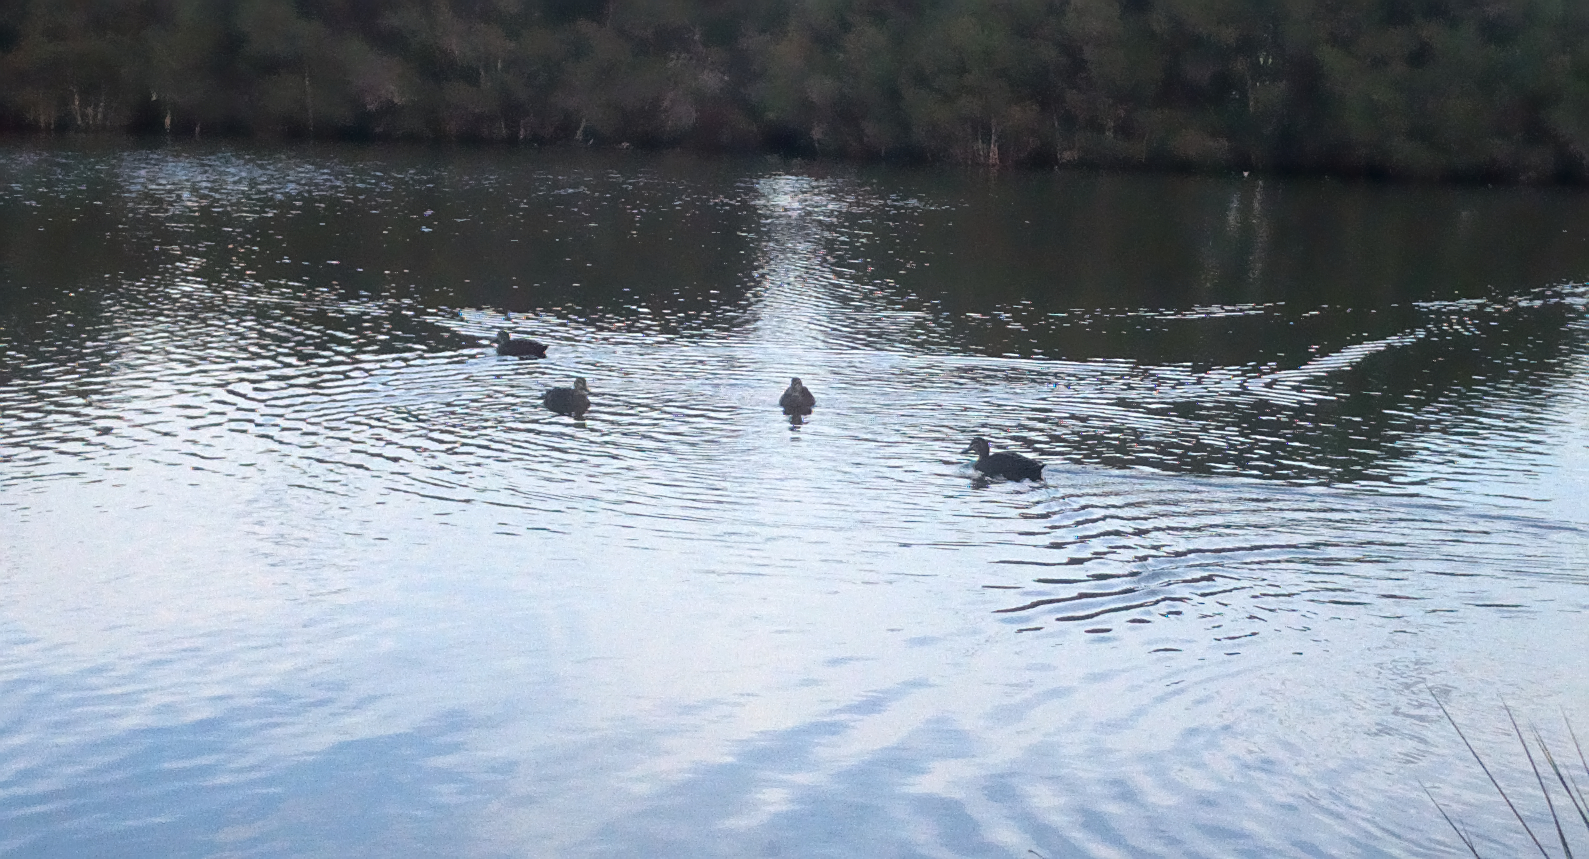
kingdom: Animalia
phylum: Chordata
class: Aves
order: Anseriformes
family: Anatidae
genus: Anas
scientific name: Anas superciliosa
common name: Pacific black duck
